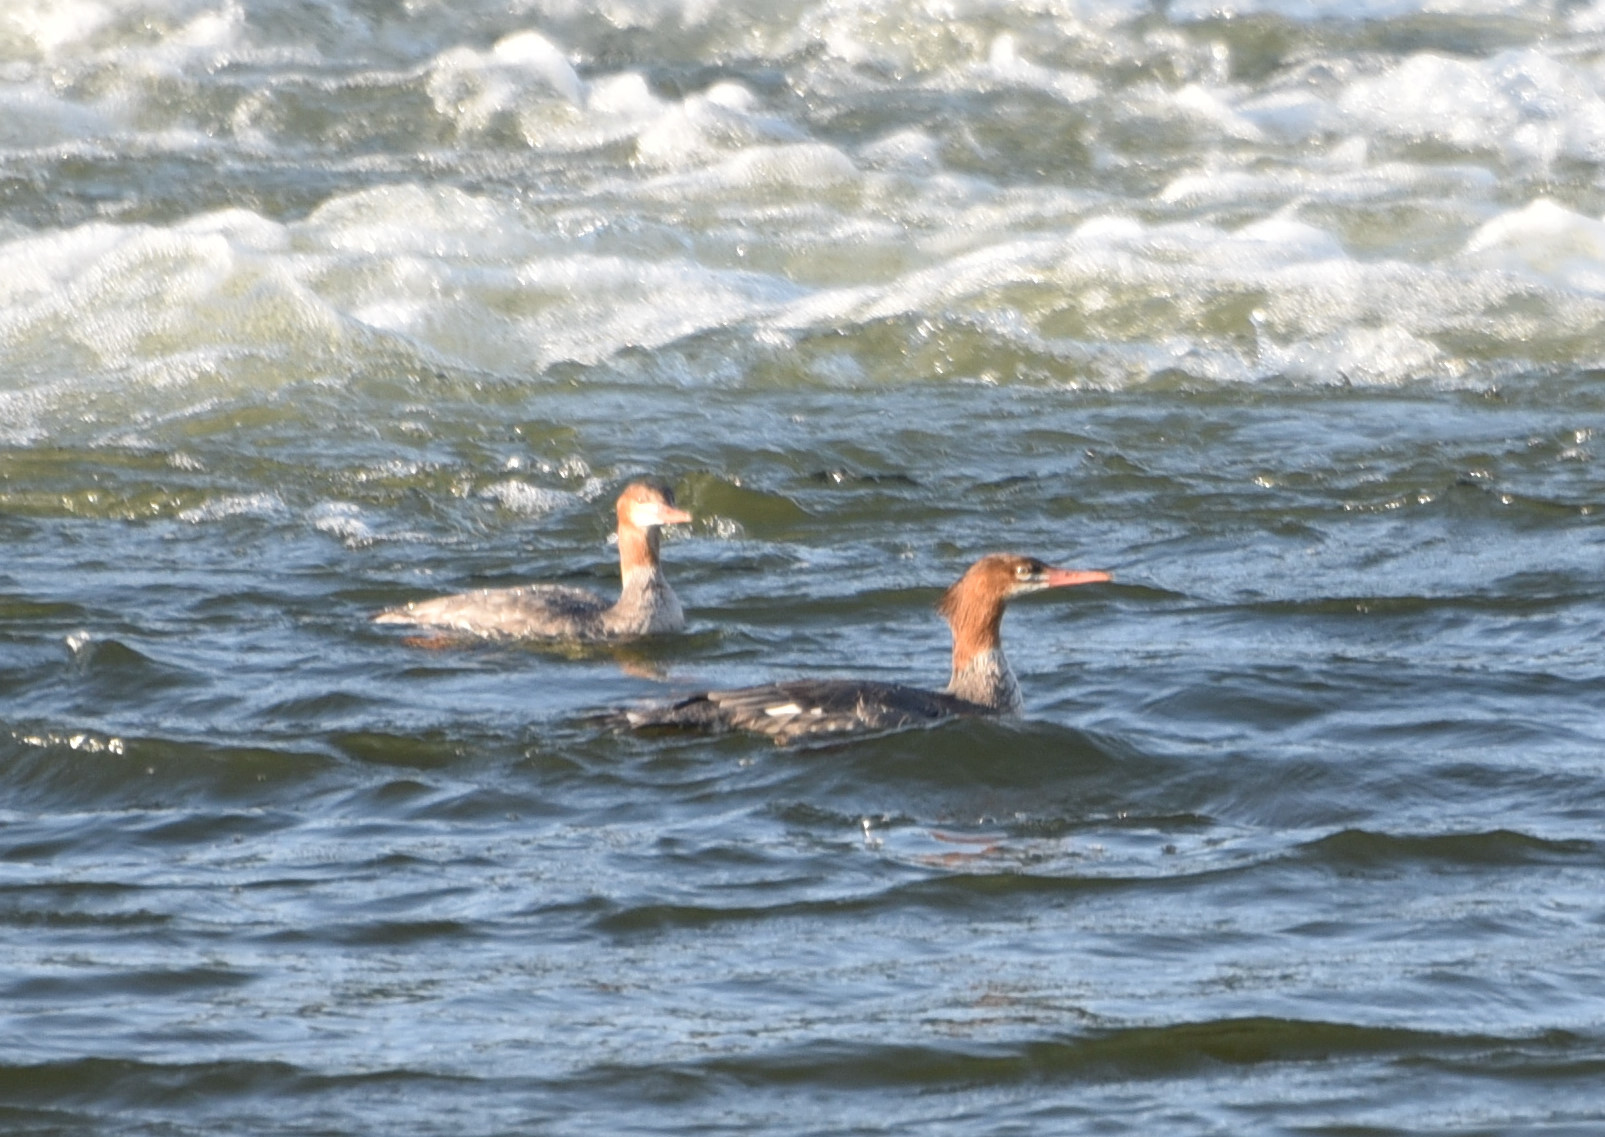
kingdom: Animalia
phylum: Chordata
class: Aves
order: Anseriformes
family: Anatidae
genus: Mergus
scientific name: Mergus merganser
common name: Common merganser
